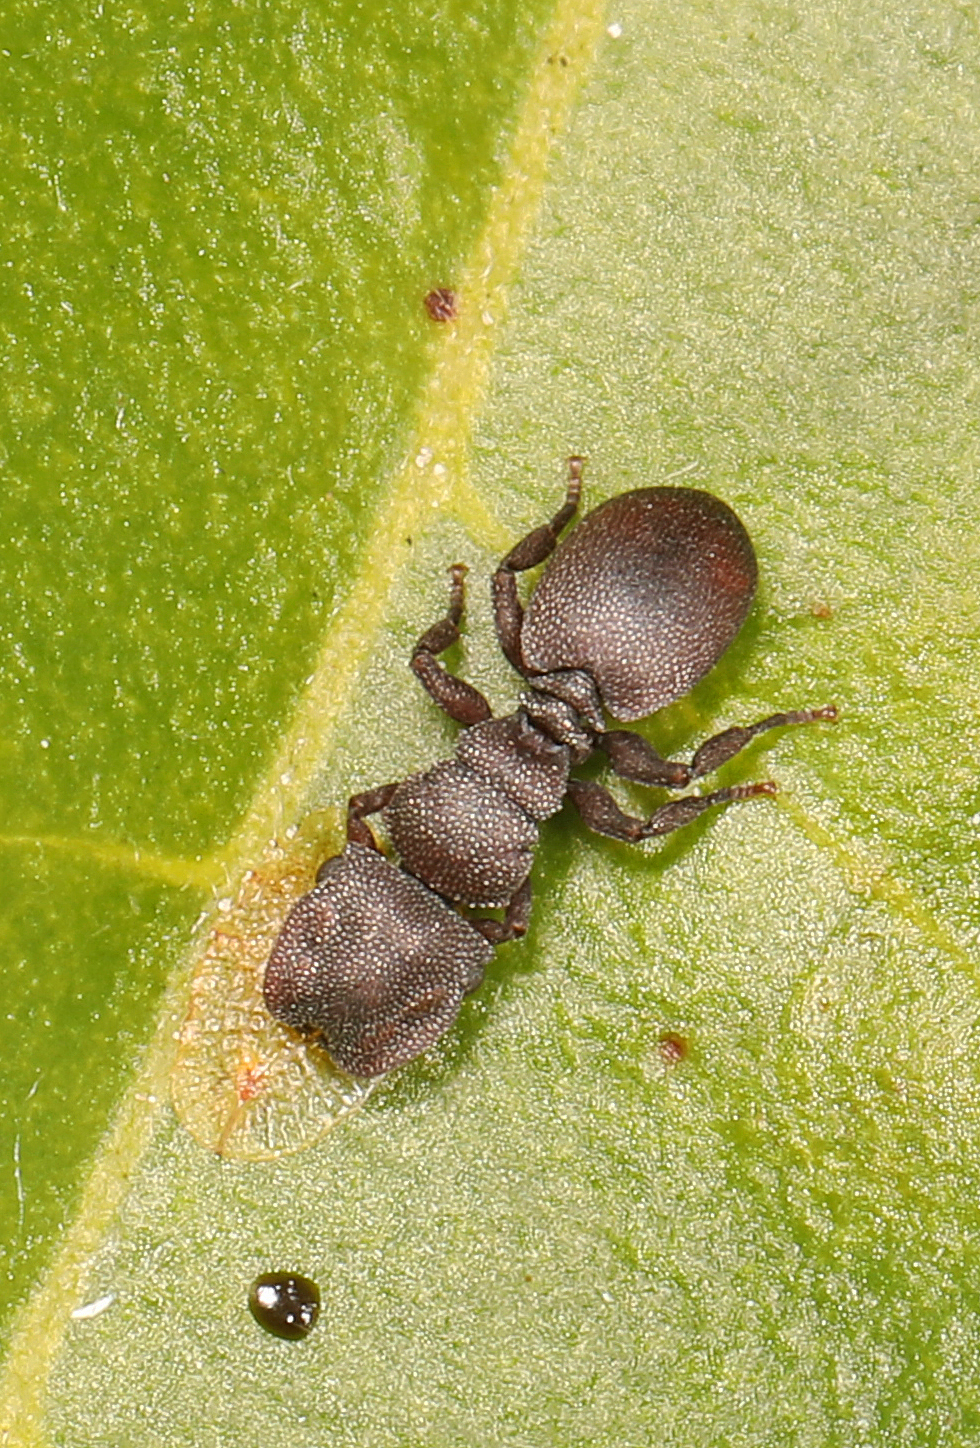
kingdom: Animalia
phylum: Arthropoda
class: Insecta
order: Hymenoptera
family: Formicidae
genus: Cephalotes
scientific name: Cephalotes varians
